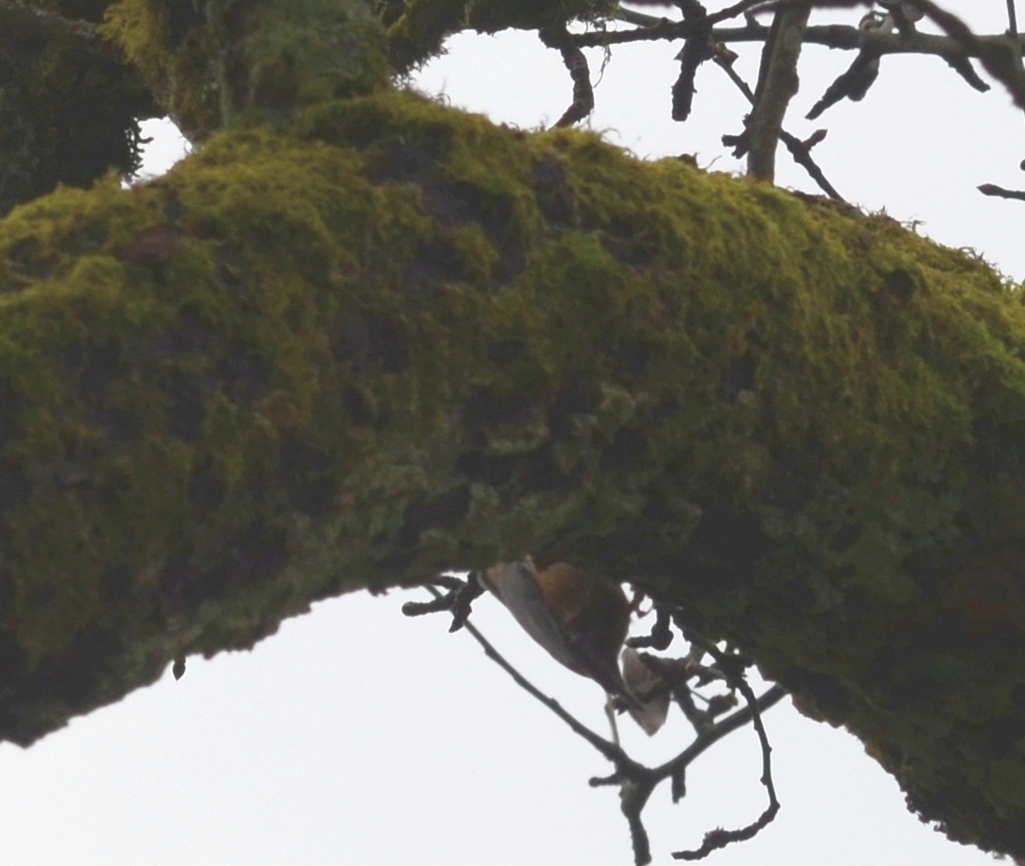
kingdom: Animalia
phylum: Chordata
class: Aves
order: Passeriformes
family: Sittidae
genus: Sitta
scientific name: Sitta europaea
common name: Eurasian nuthatch
